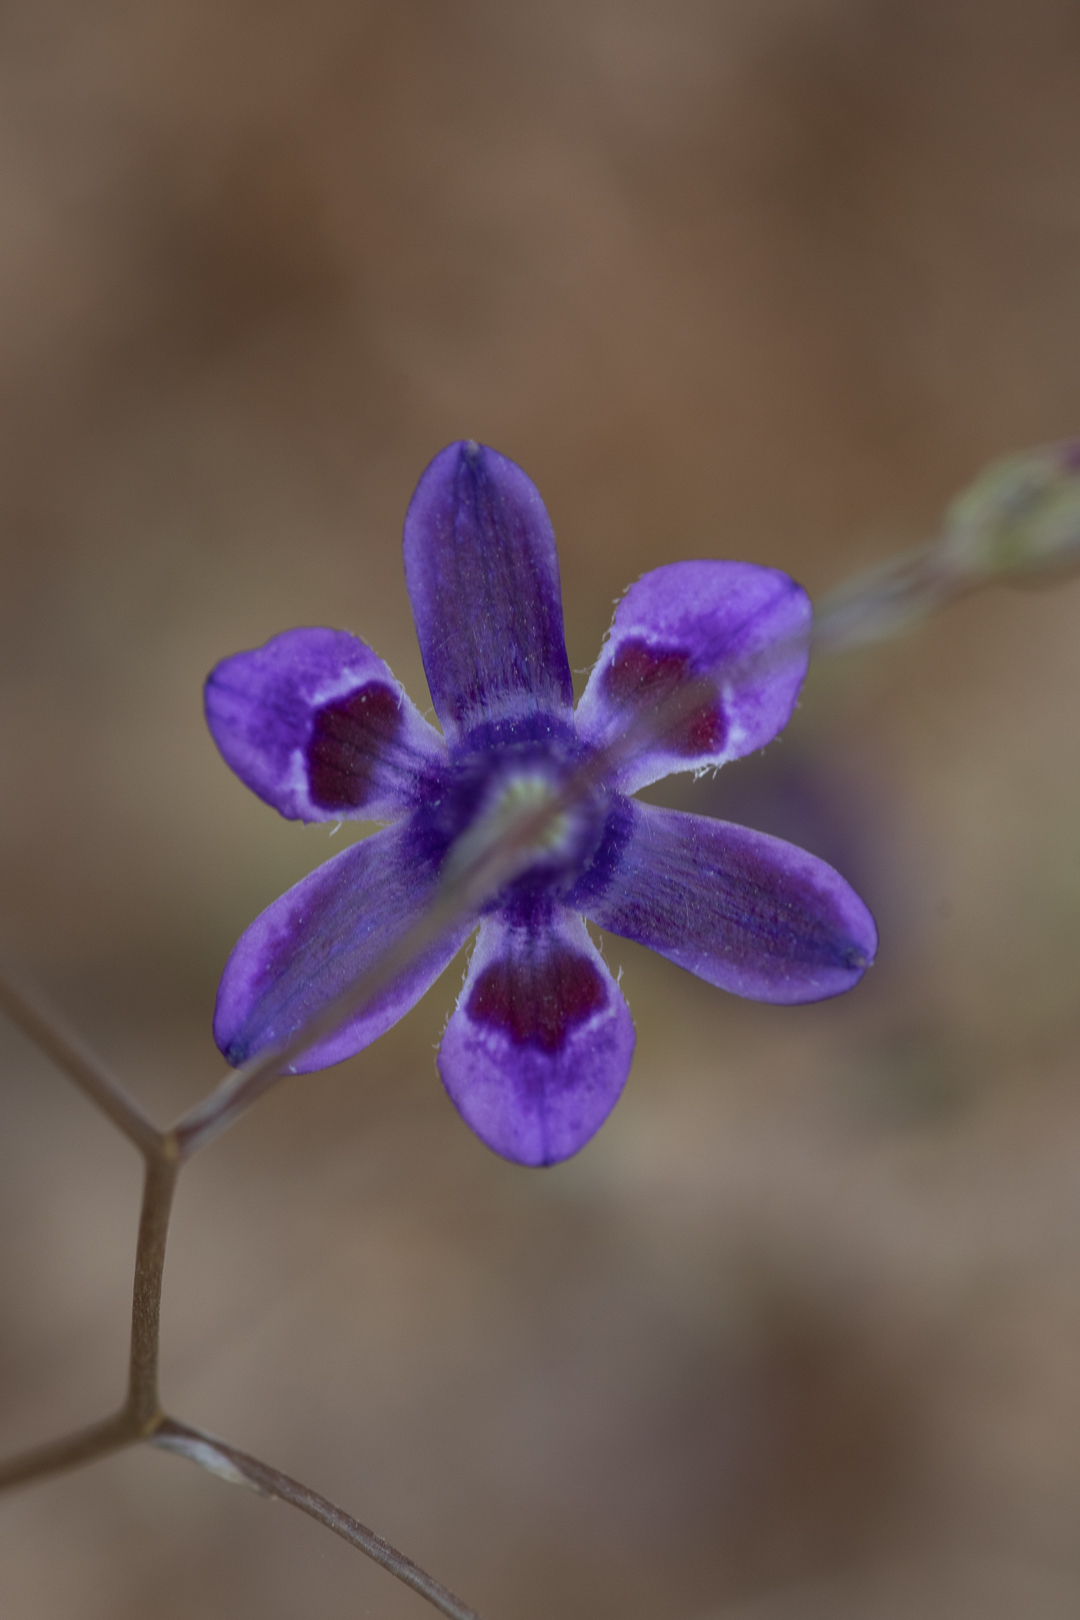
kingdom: Plantae
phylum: Tracheophyta
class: Liliopsida
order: Asparagales
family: Tecophilaeaceae
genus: Conanthera
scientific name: Conanthera trimaculata
